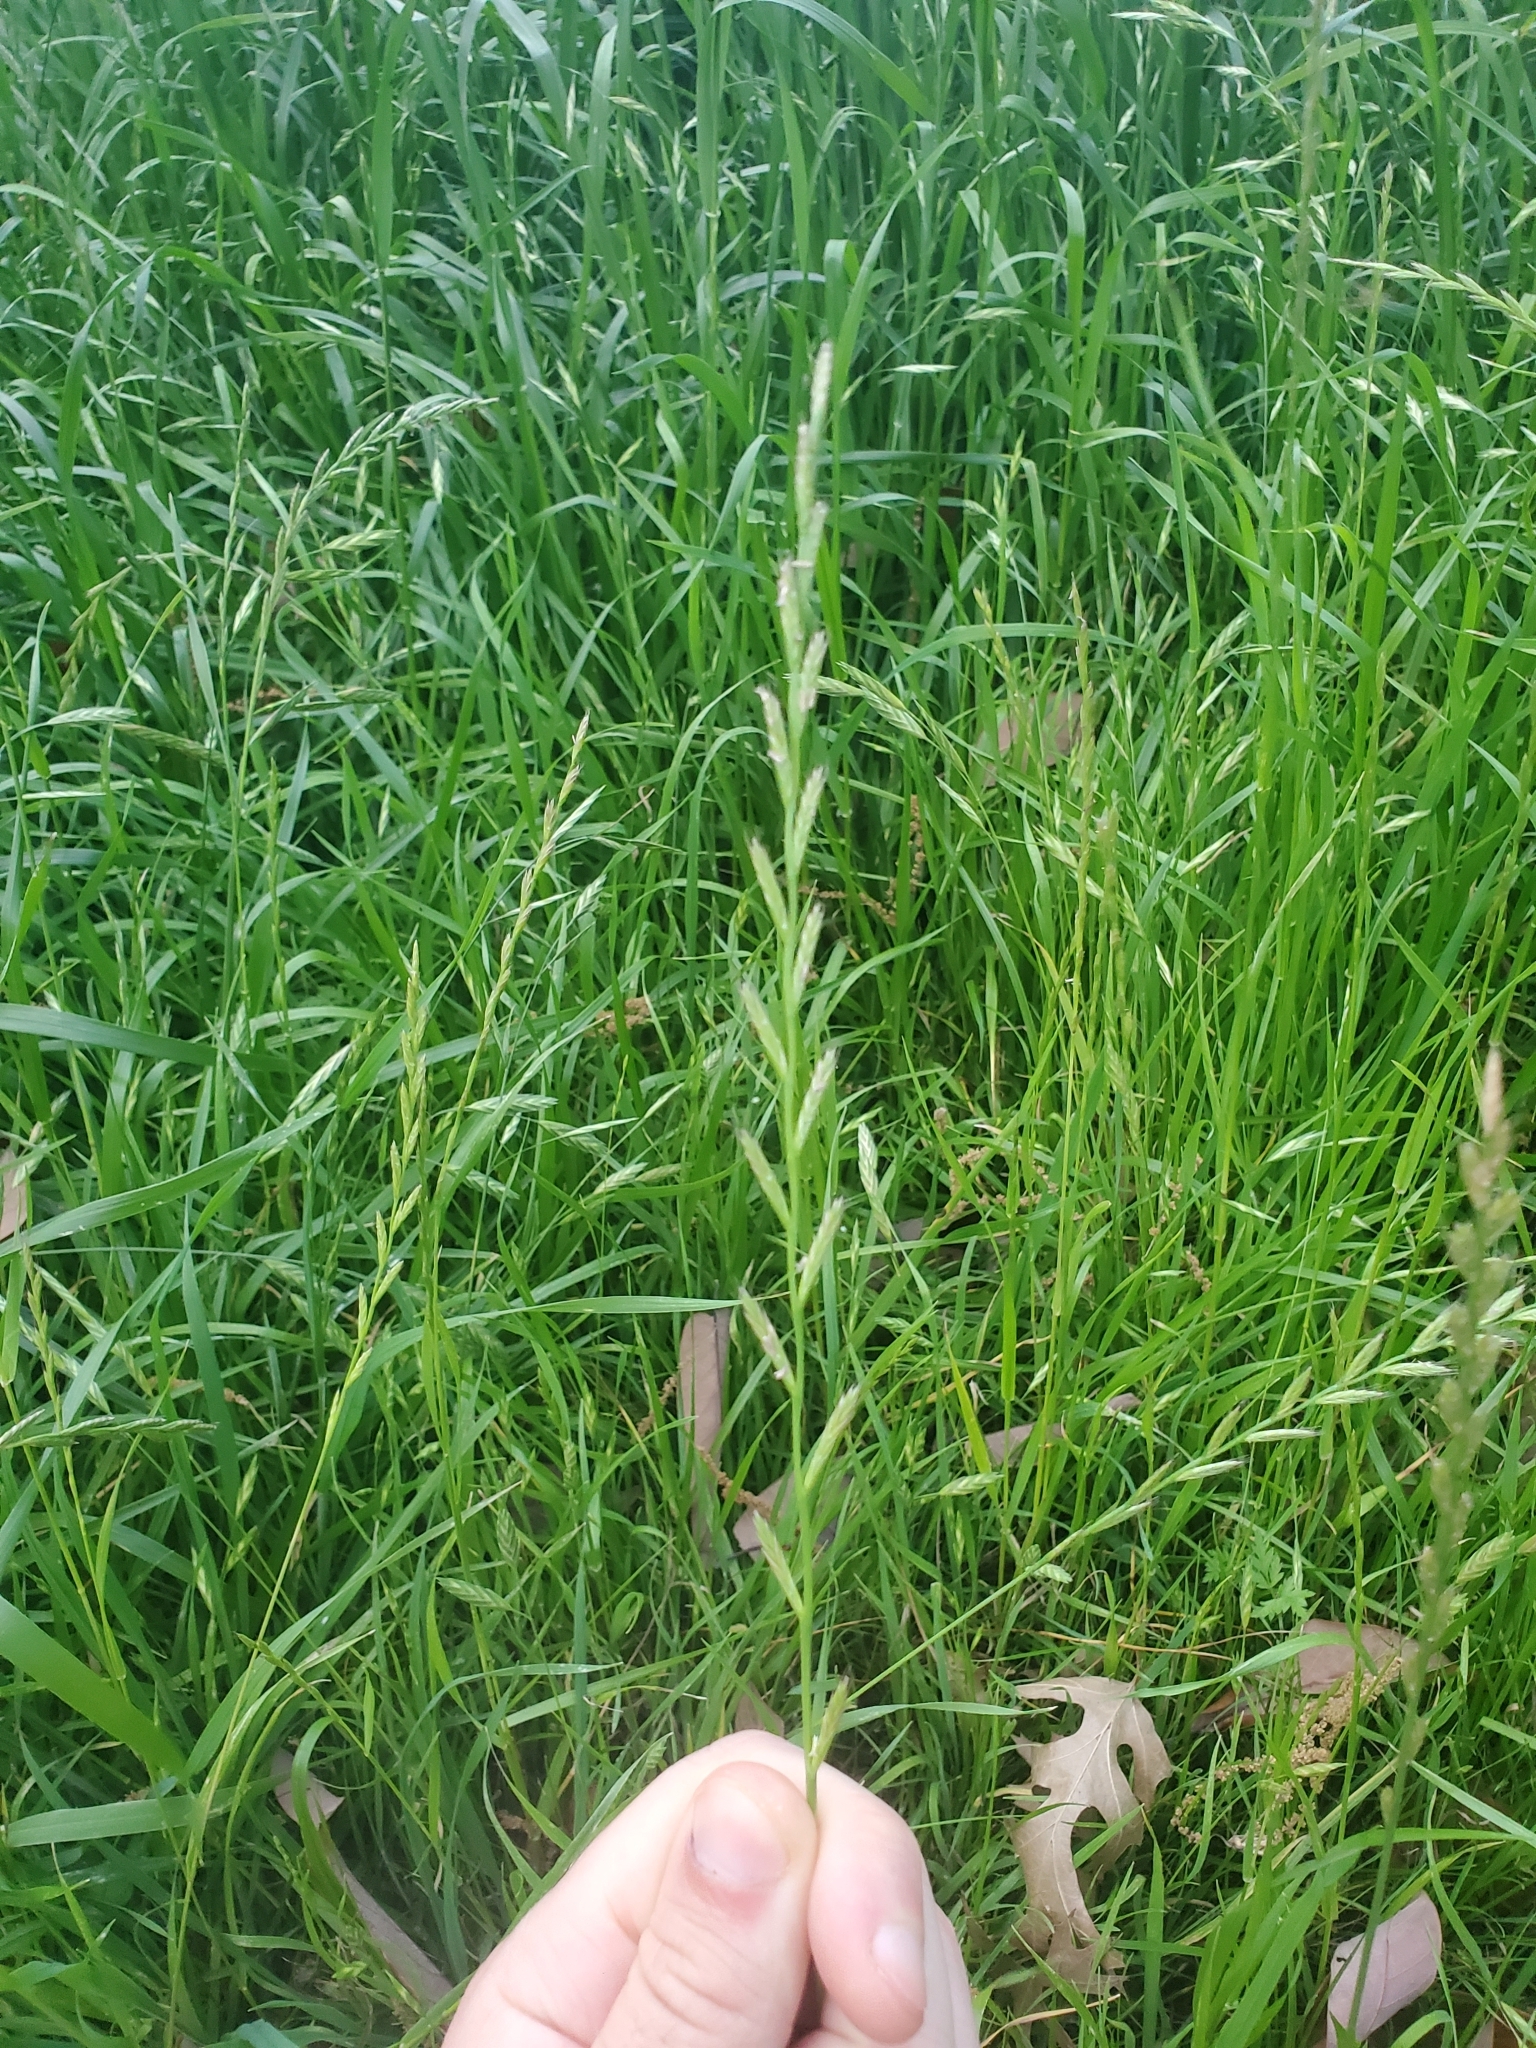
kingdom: Plantae
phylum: Tracheophyta
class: Liliopsida
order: Poales
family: Poaceae
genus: Lolium
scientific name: Lolium perenne
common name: Perennial ryegrass
